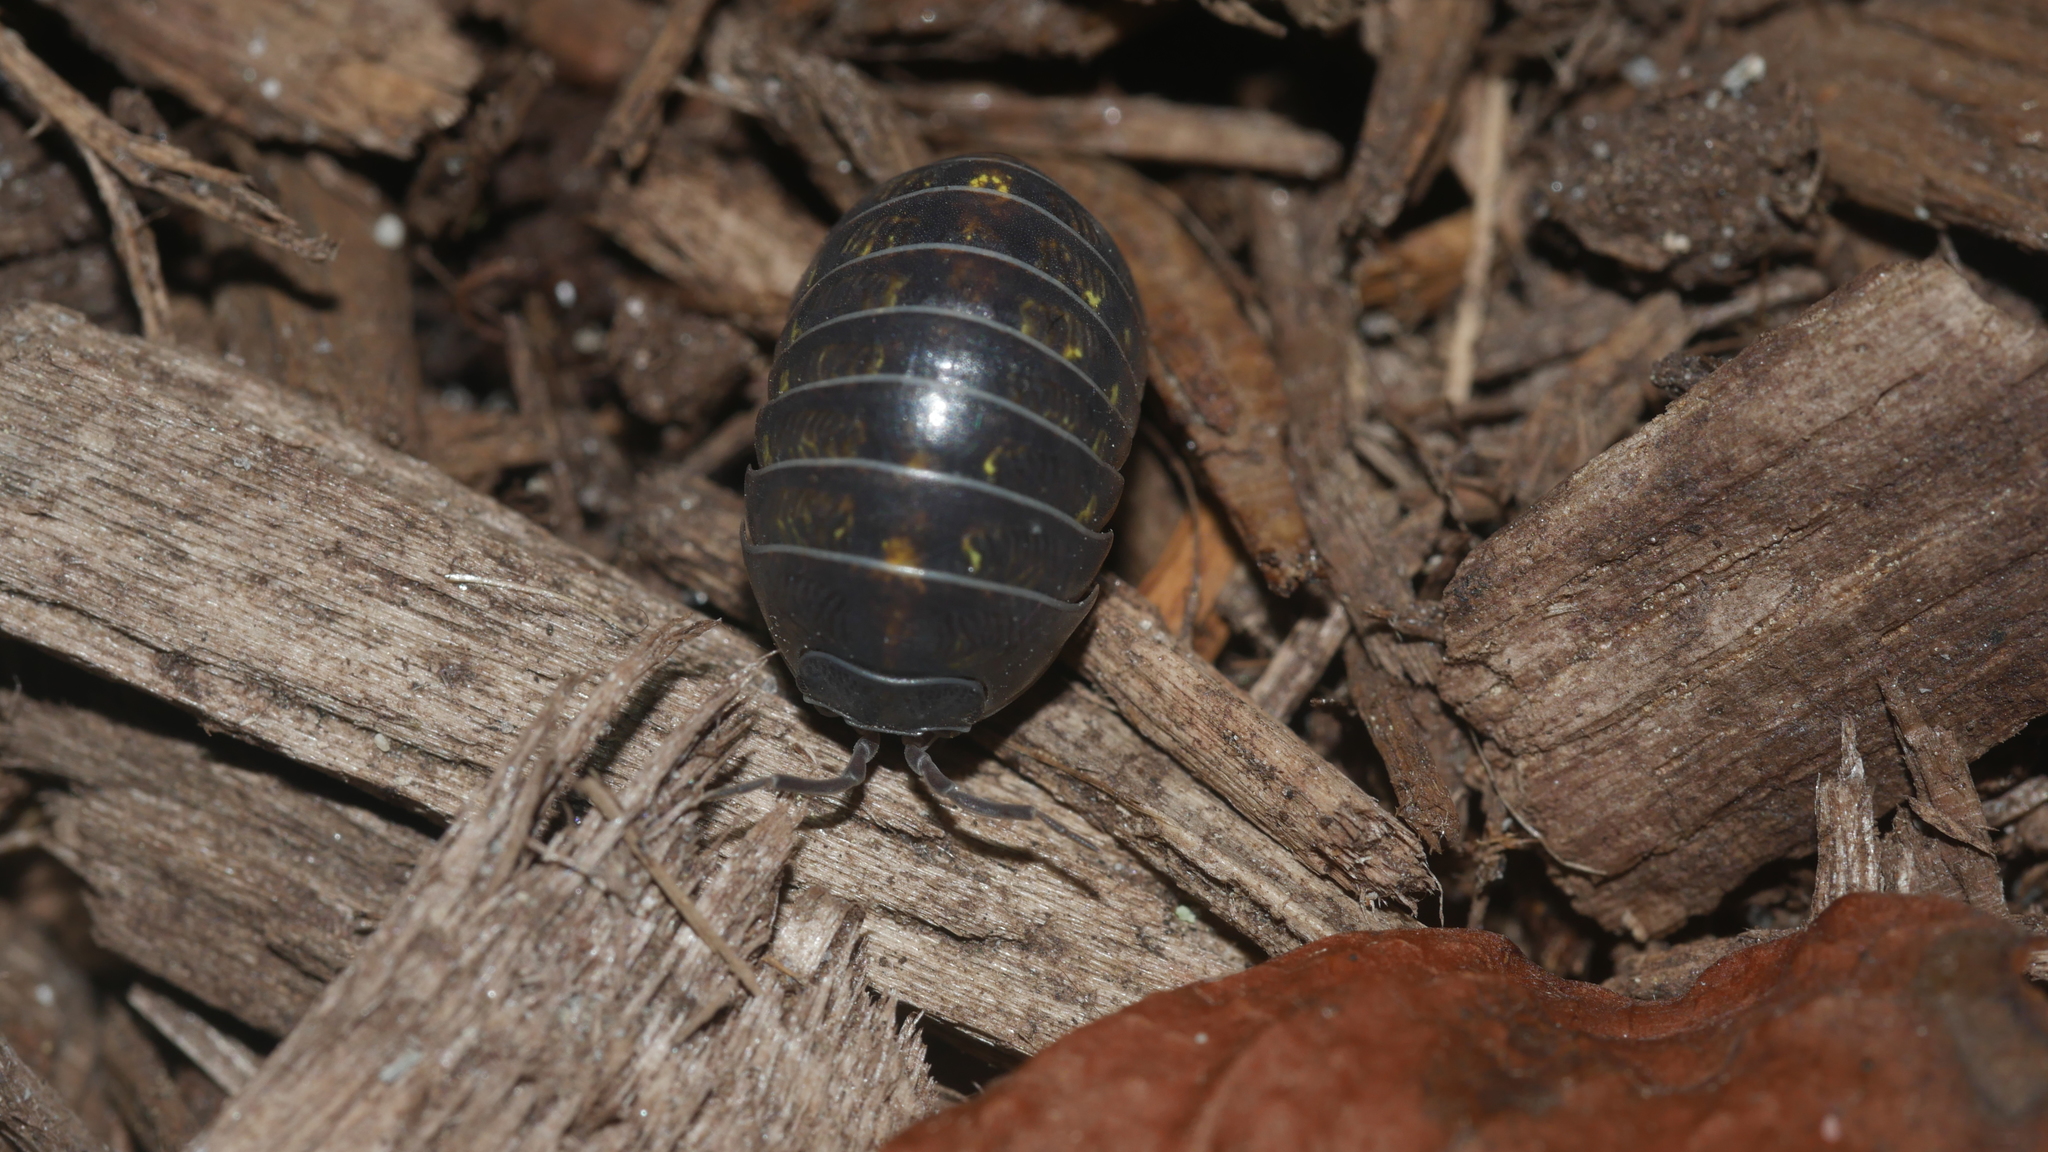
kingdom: Animalia
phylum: Arthropoda
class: Malacostraca
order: Isopoda
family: Armadillidiidae
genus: Armadillidium
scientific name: Armadillidium vulgare
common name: Common pill woodlouse
